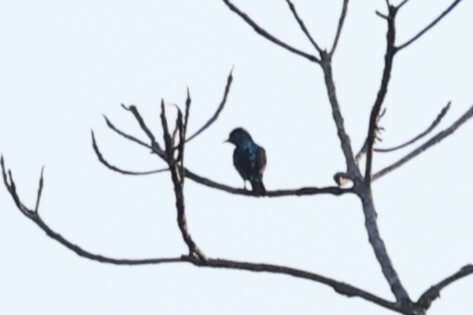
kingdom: Animalia
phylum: Chordata
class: Aves
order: Passeriformes
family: Cotingidae
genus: Cotinga
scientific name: Cotinga cayana
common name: Spangled cotinga
